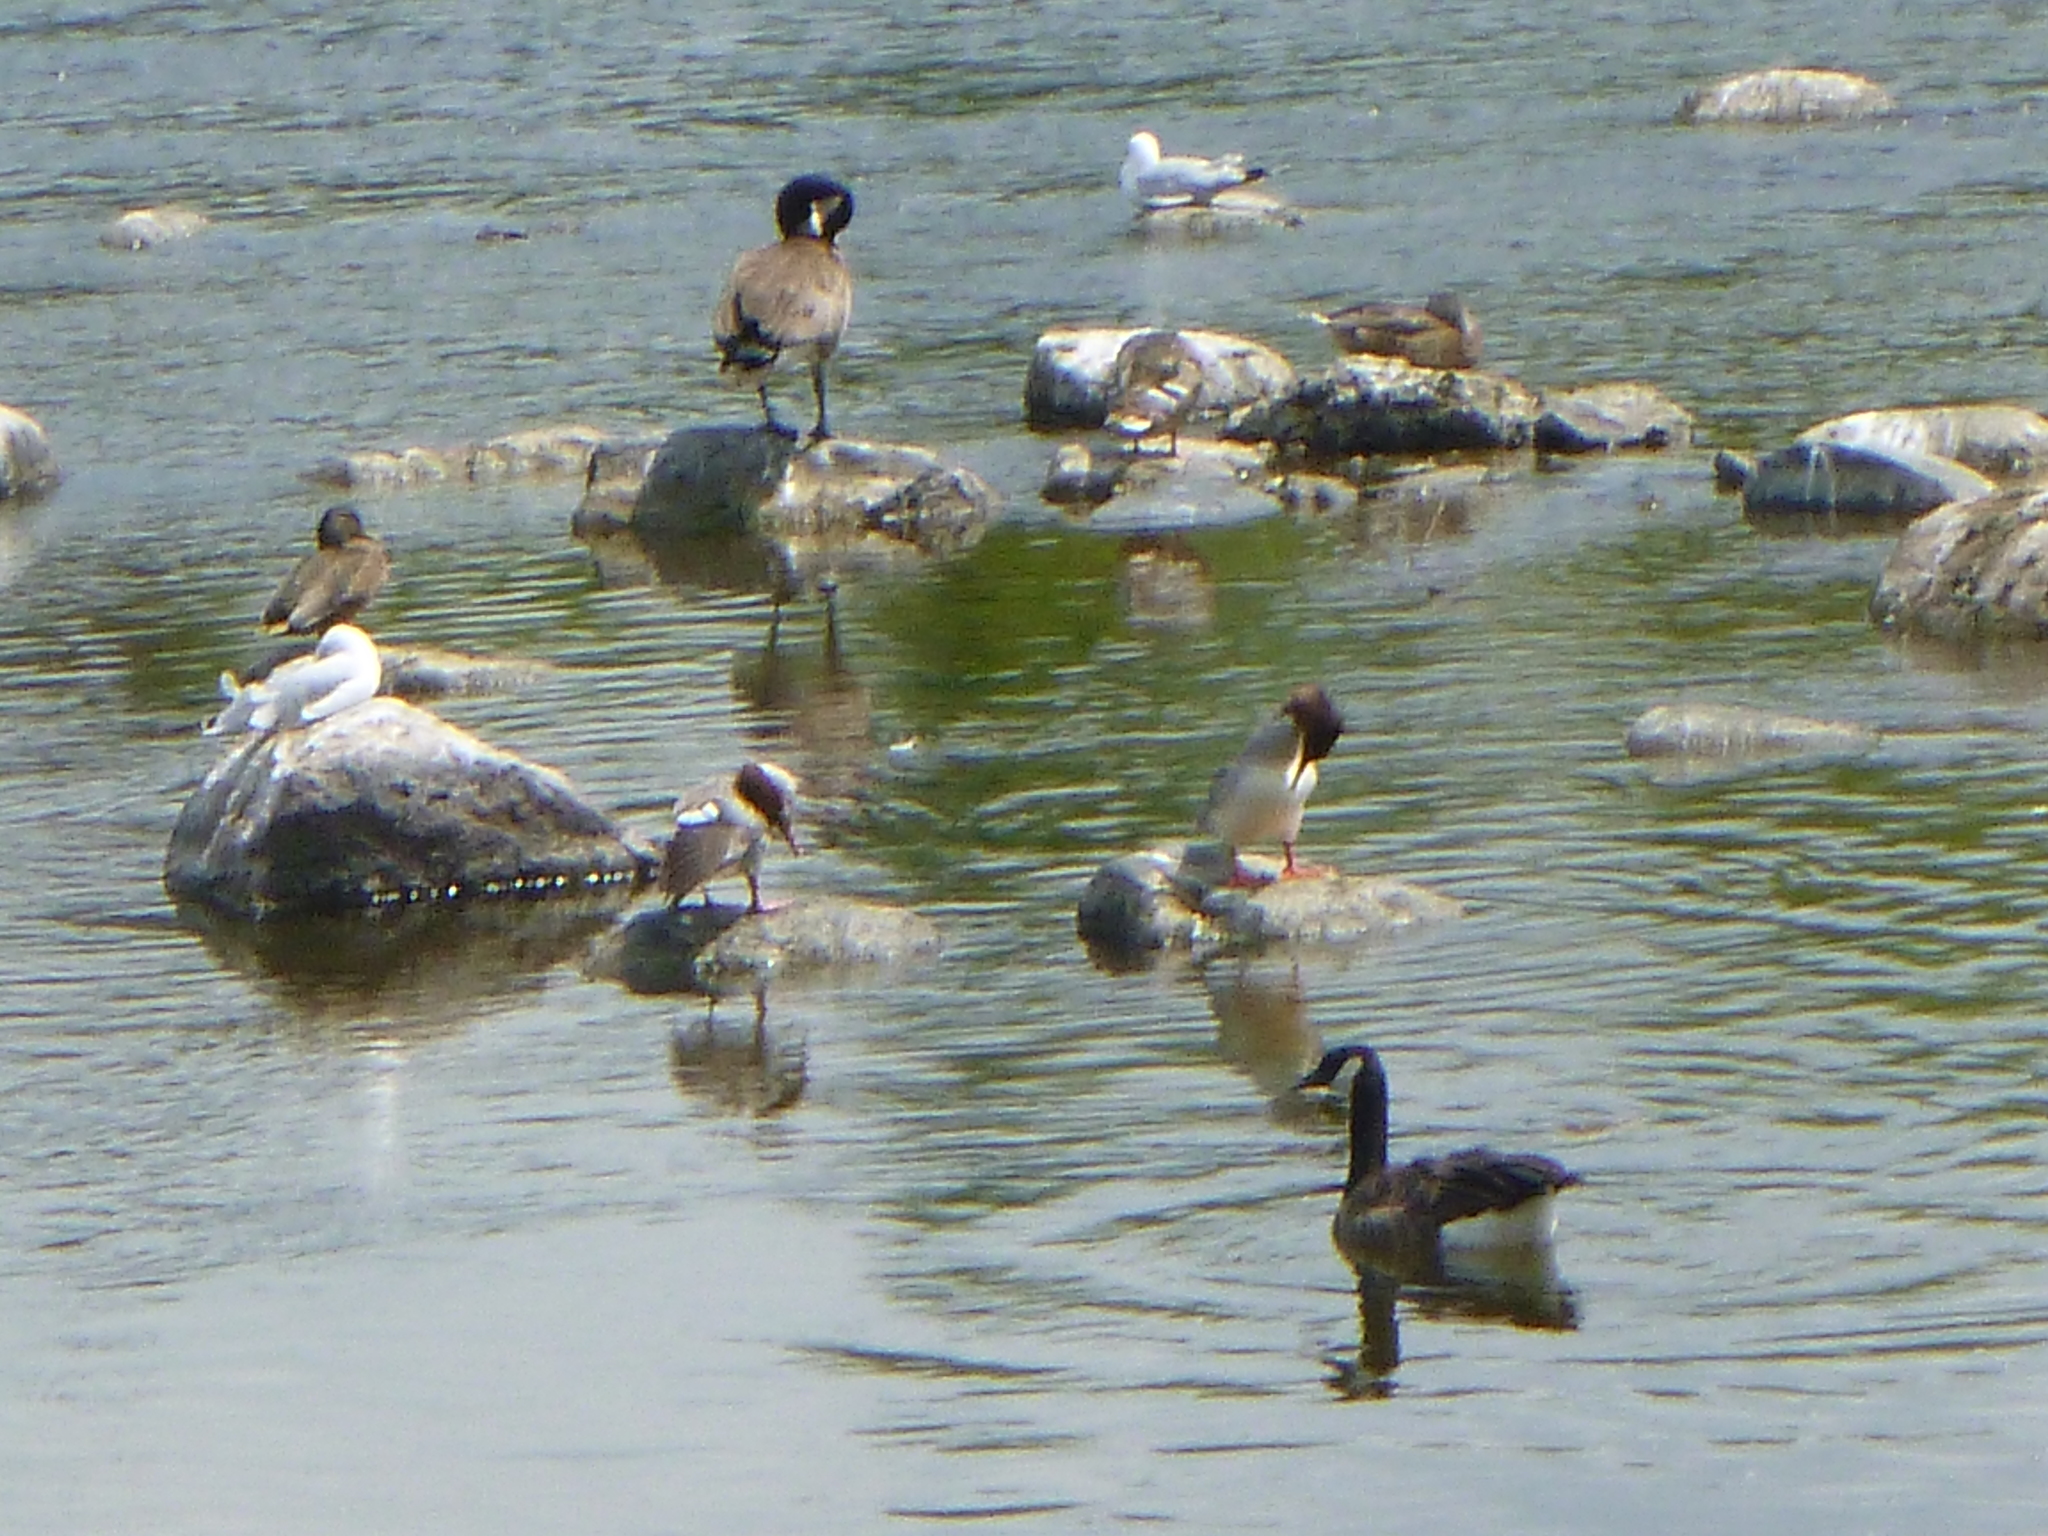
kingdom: Animalia
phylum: Chordata
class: Aves
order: Anseriformes
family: Anatidae
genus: Mergus
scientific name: Mergus merganser
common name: Common merganser
